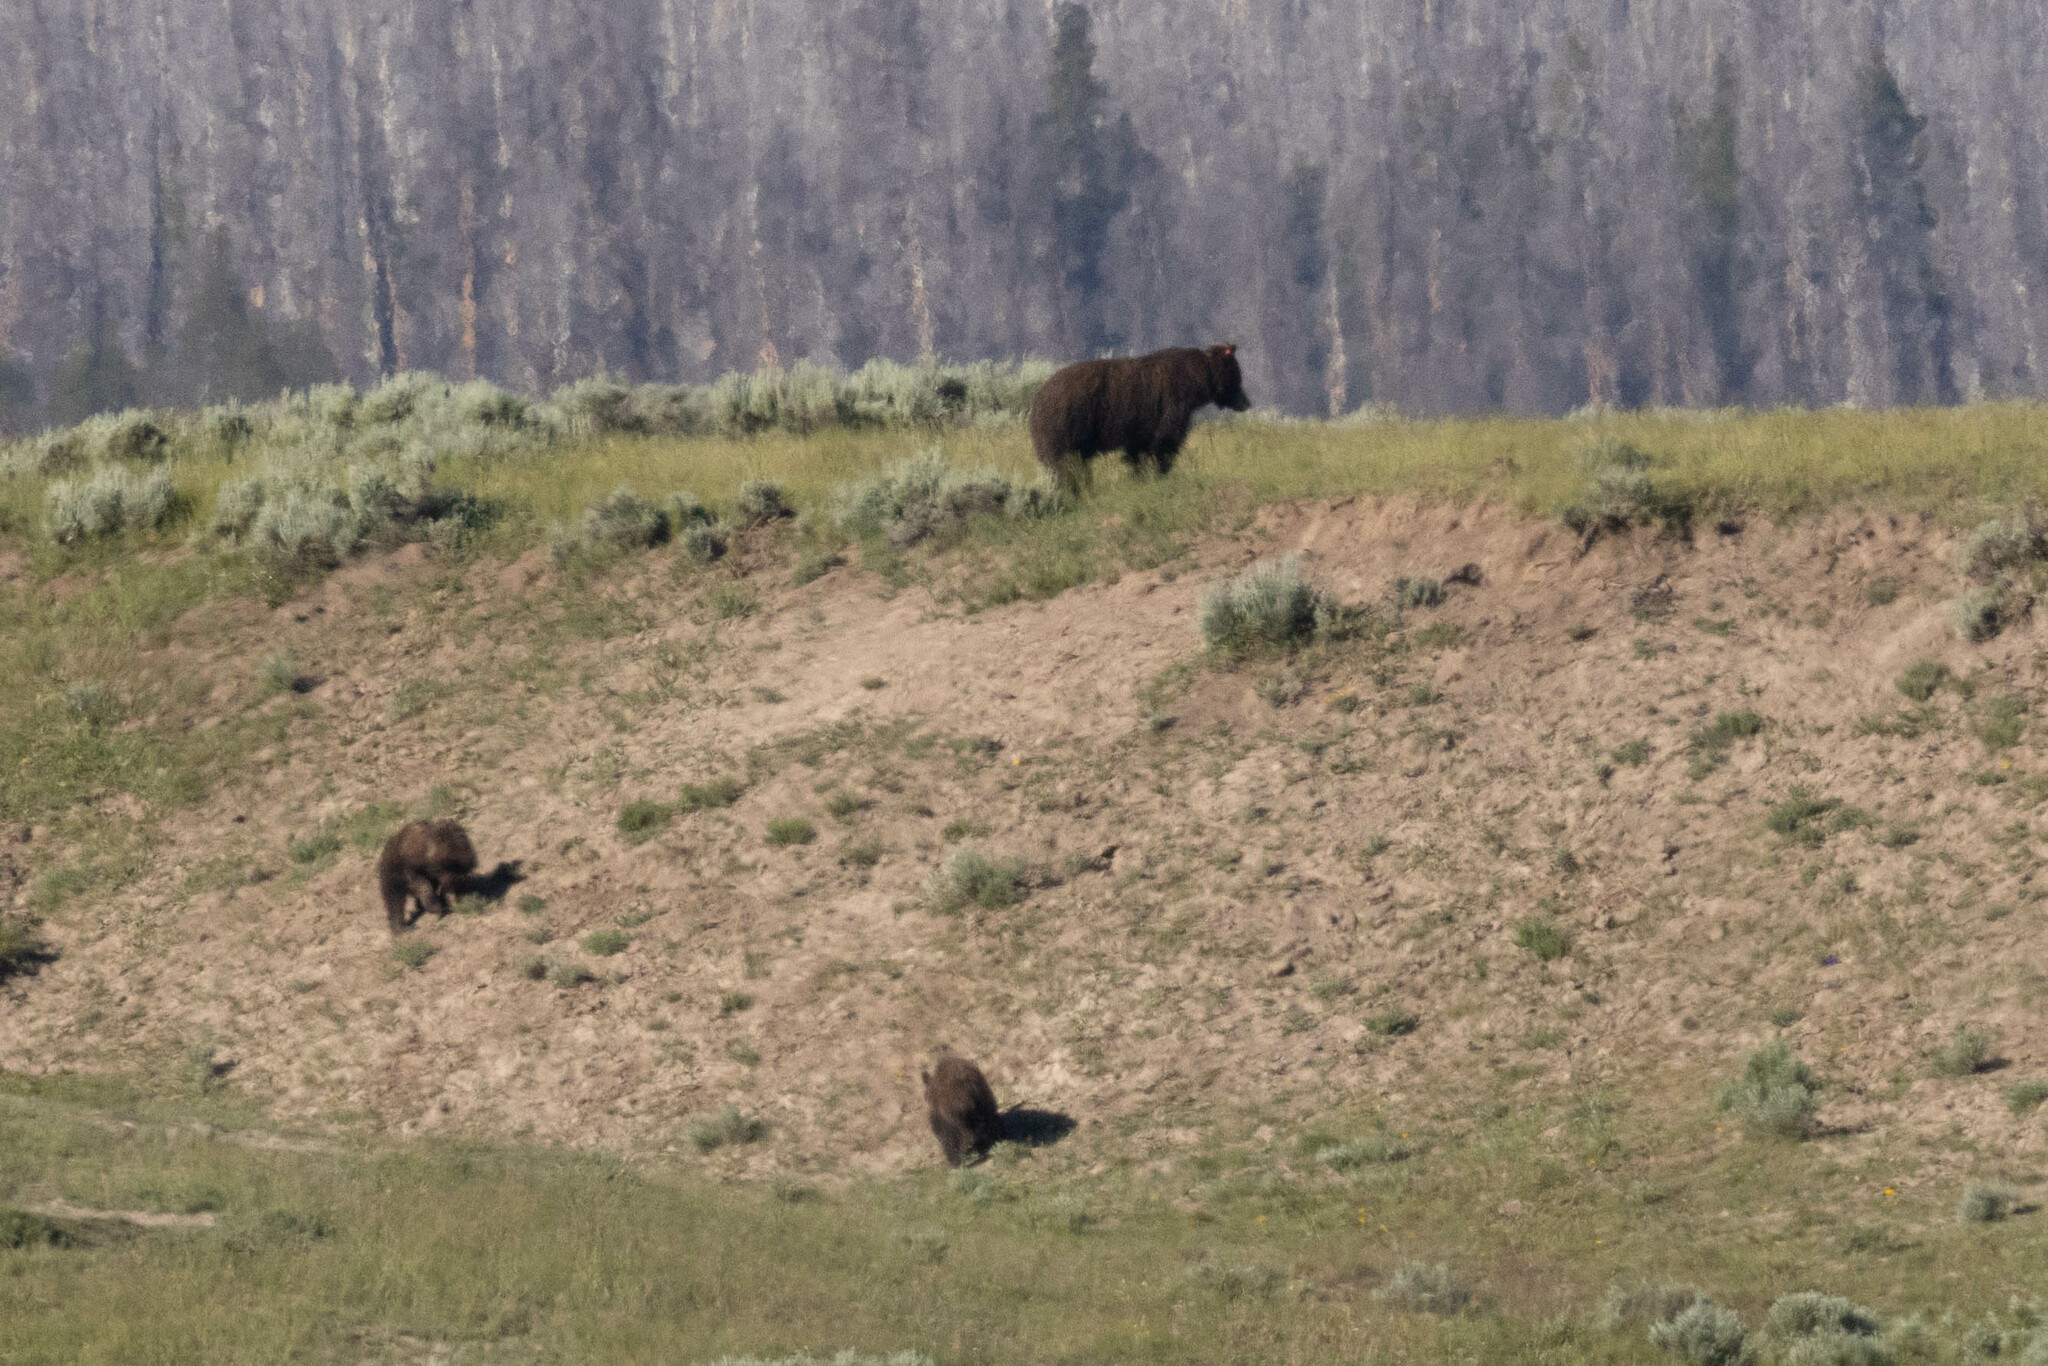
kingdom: Animalia
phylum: Chordata
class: Mammalia
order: Carnivora
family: Ursidae
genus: Ursus
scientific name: Ursus arctos
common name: Brown bear
